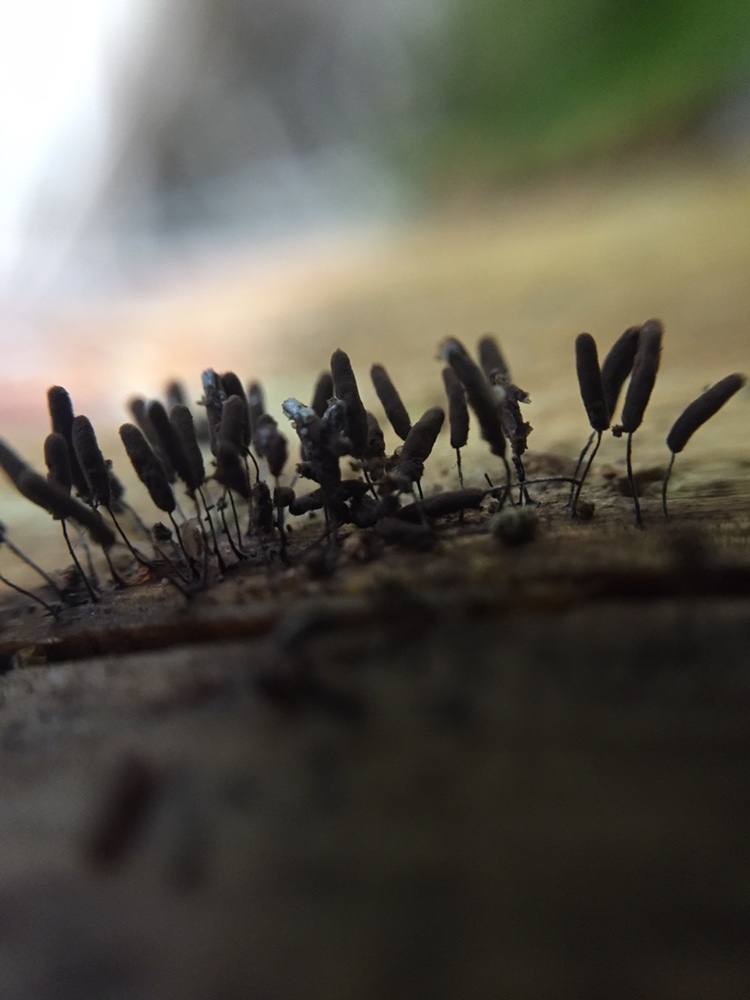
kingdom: Protozoa
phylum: Mycetozoa
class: Myxomycetes
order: Stemonitidales
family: Stemonitidaceae
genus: Stemonitopsis
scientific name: Stemonitopsis typhina
